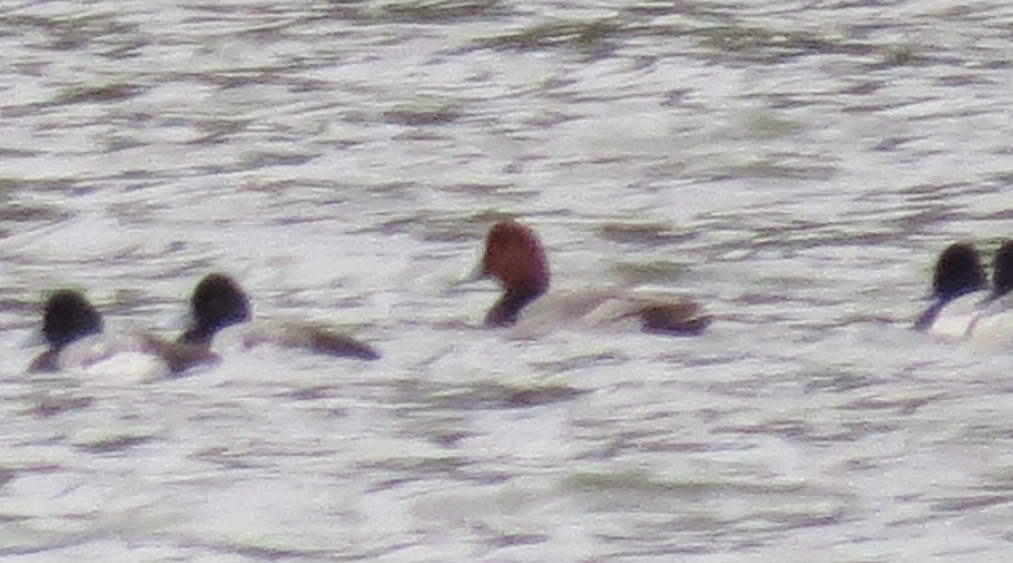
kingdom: Animalia
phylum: Chordata
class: Aves
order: Anseriformes
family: Anatidae
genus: Aythya
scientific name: Aythya americana
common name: Redhead
